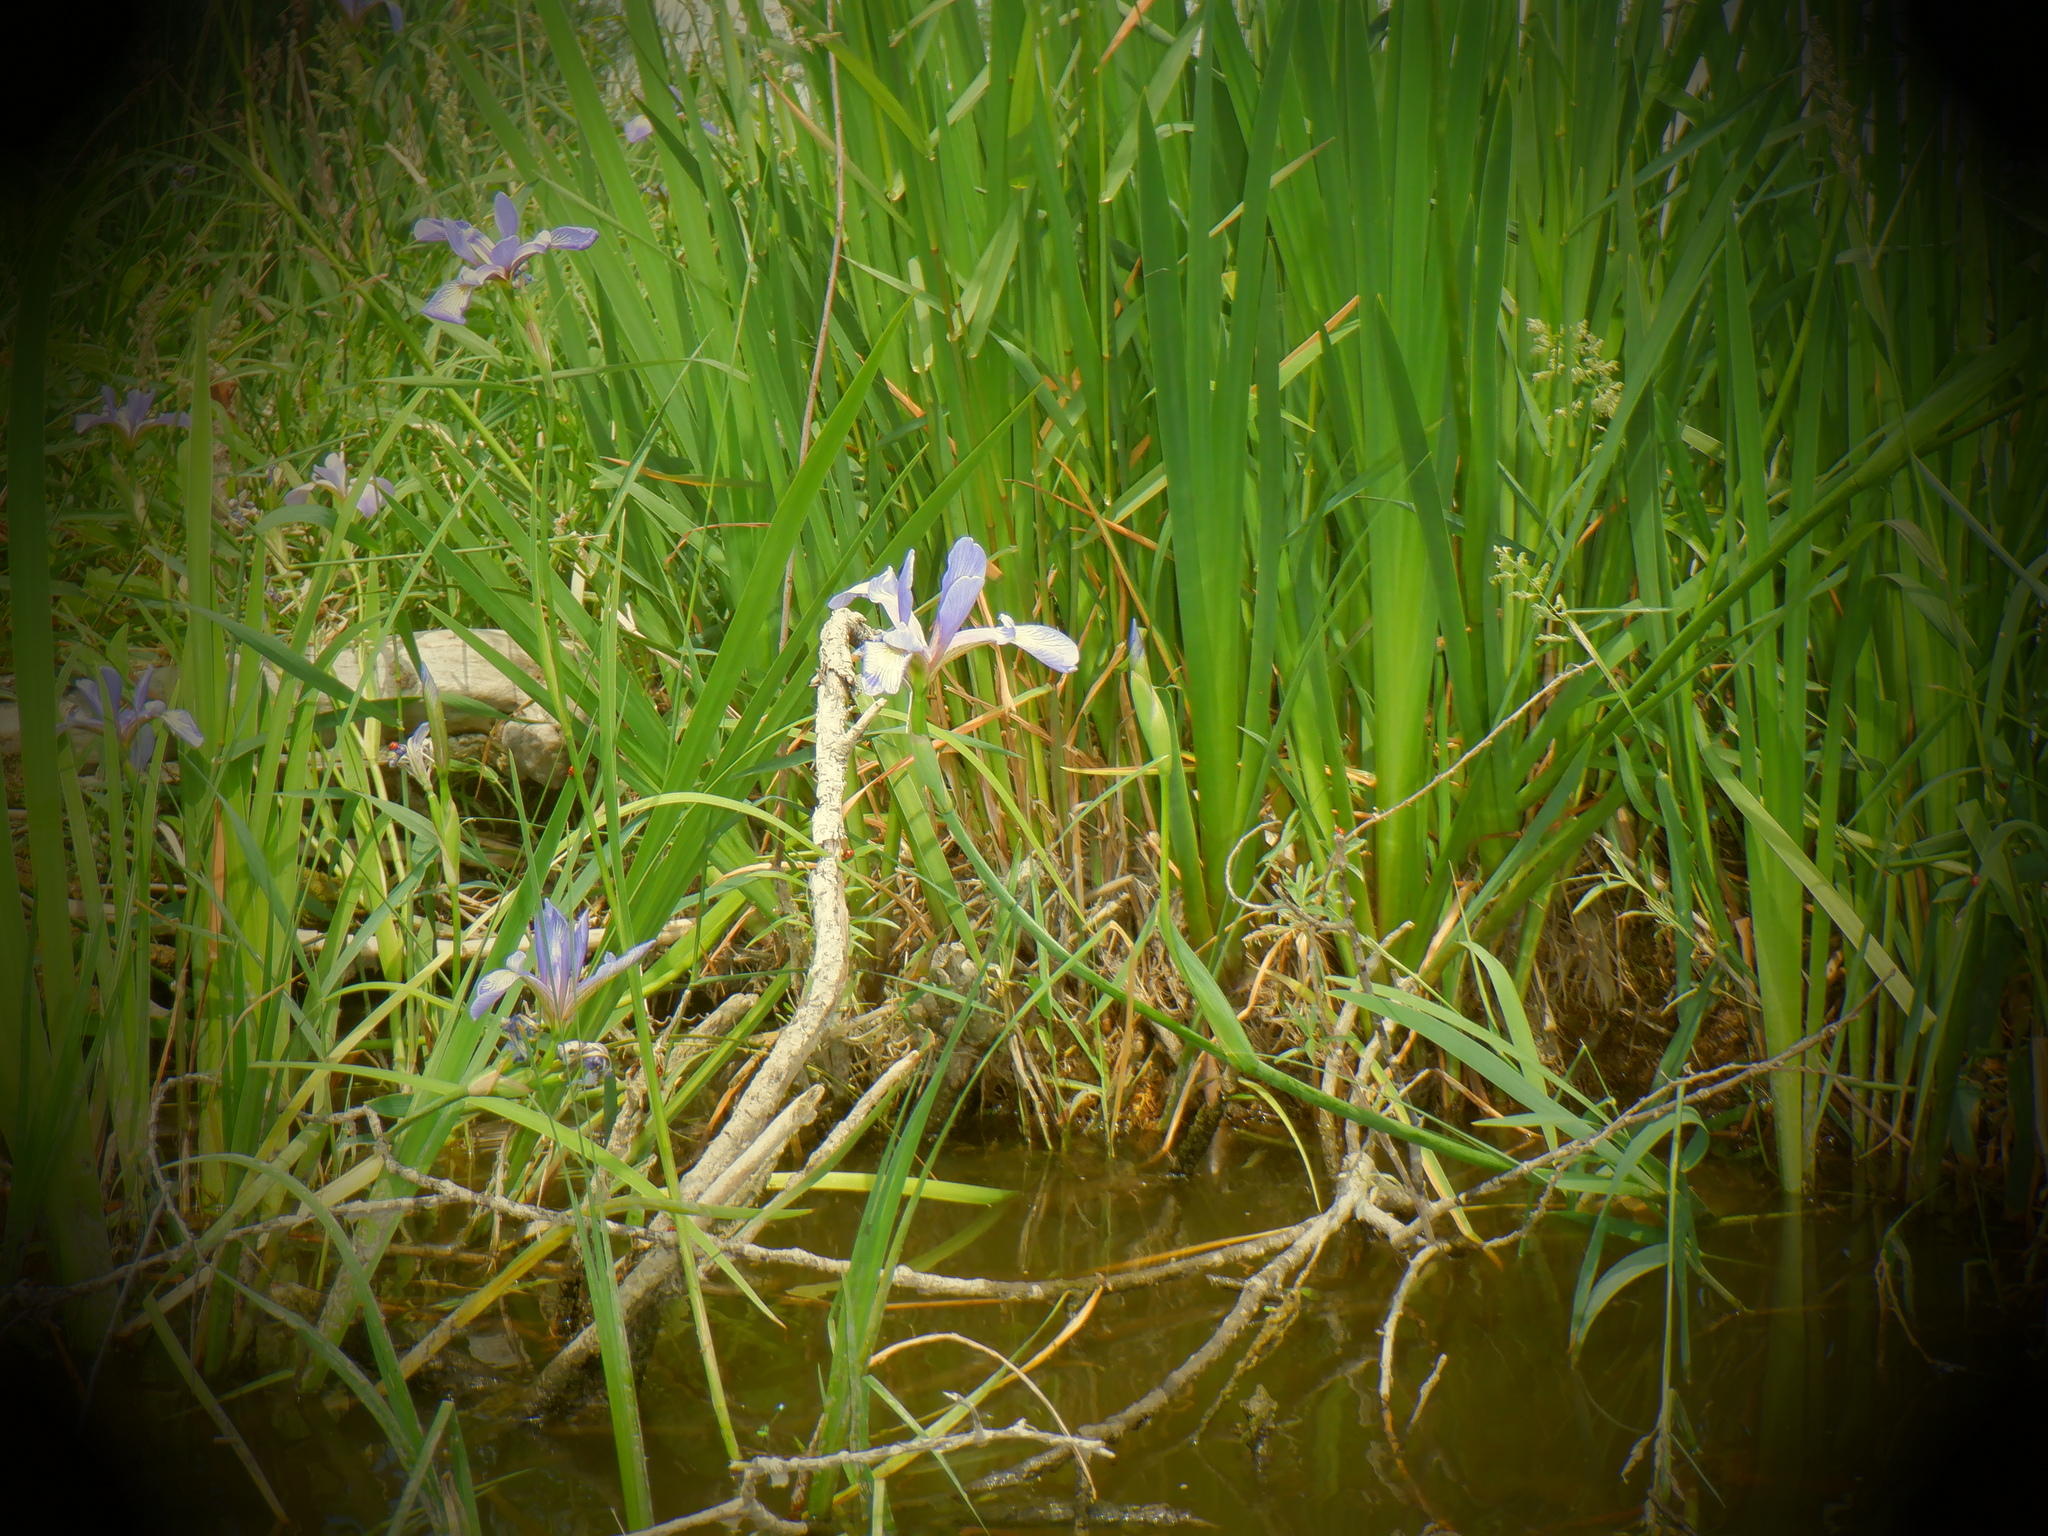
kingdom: Plantae
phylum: Tracheophyta
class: Liliopsida
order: Asparagales
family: Iridaceae
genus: Iris
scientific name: Iris virginica
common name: Southern blue flag
